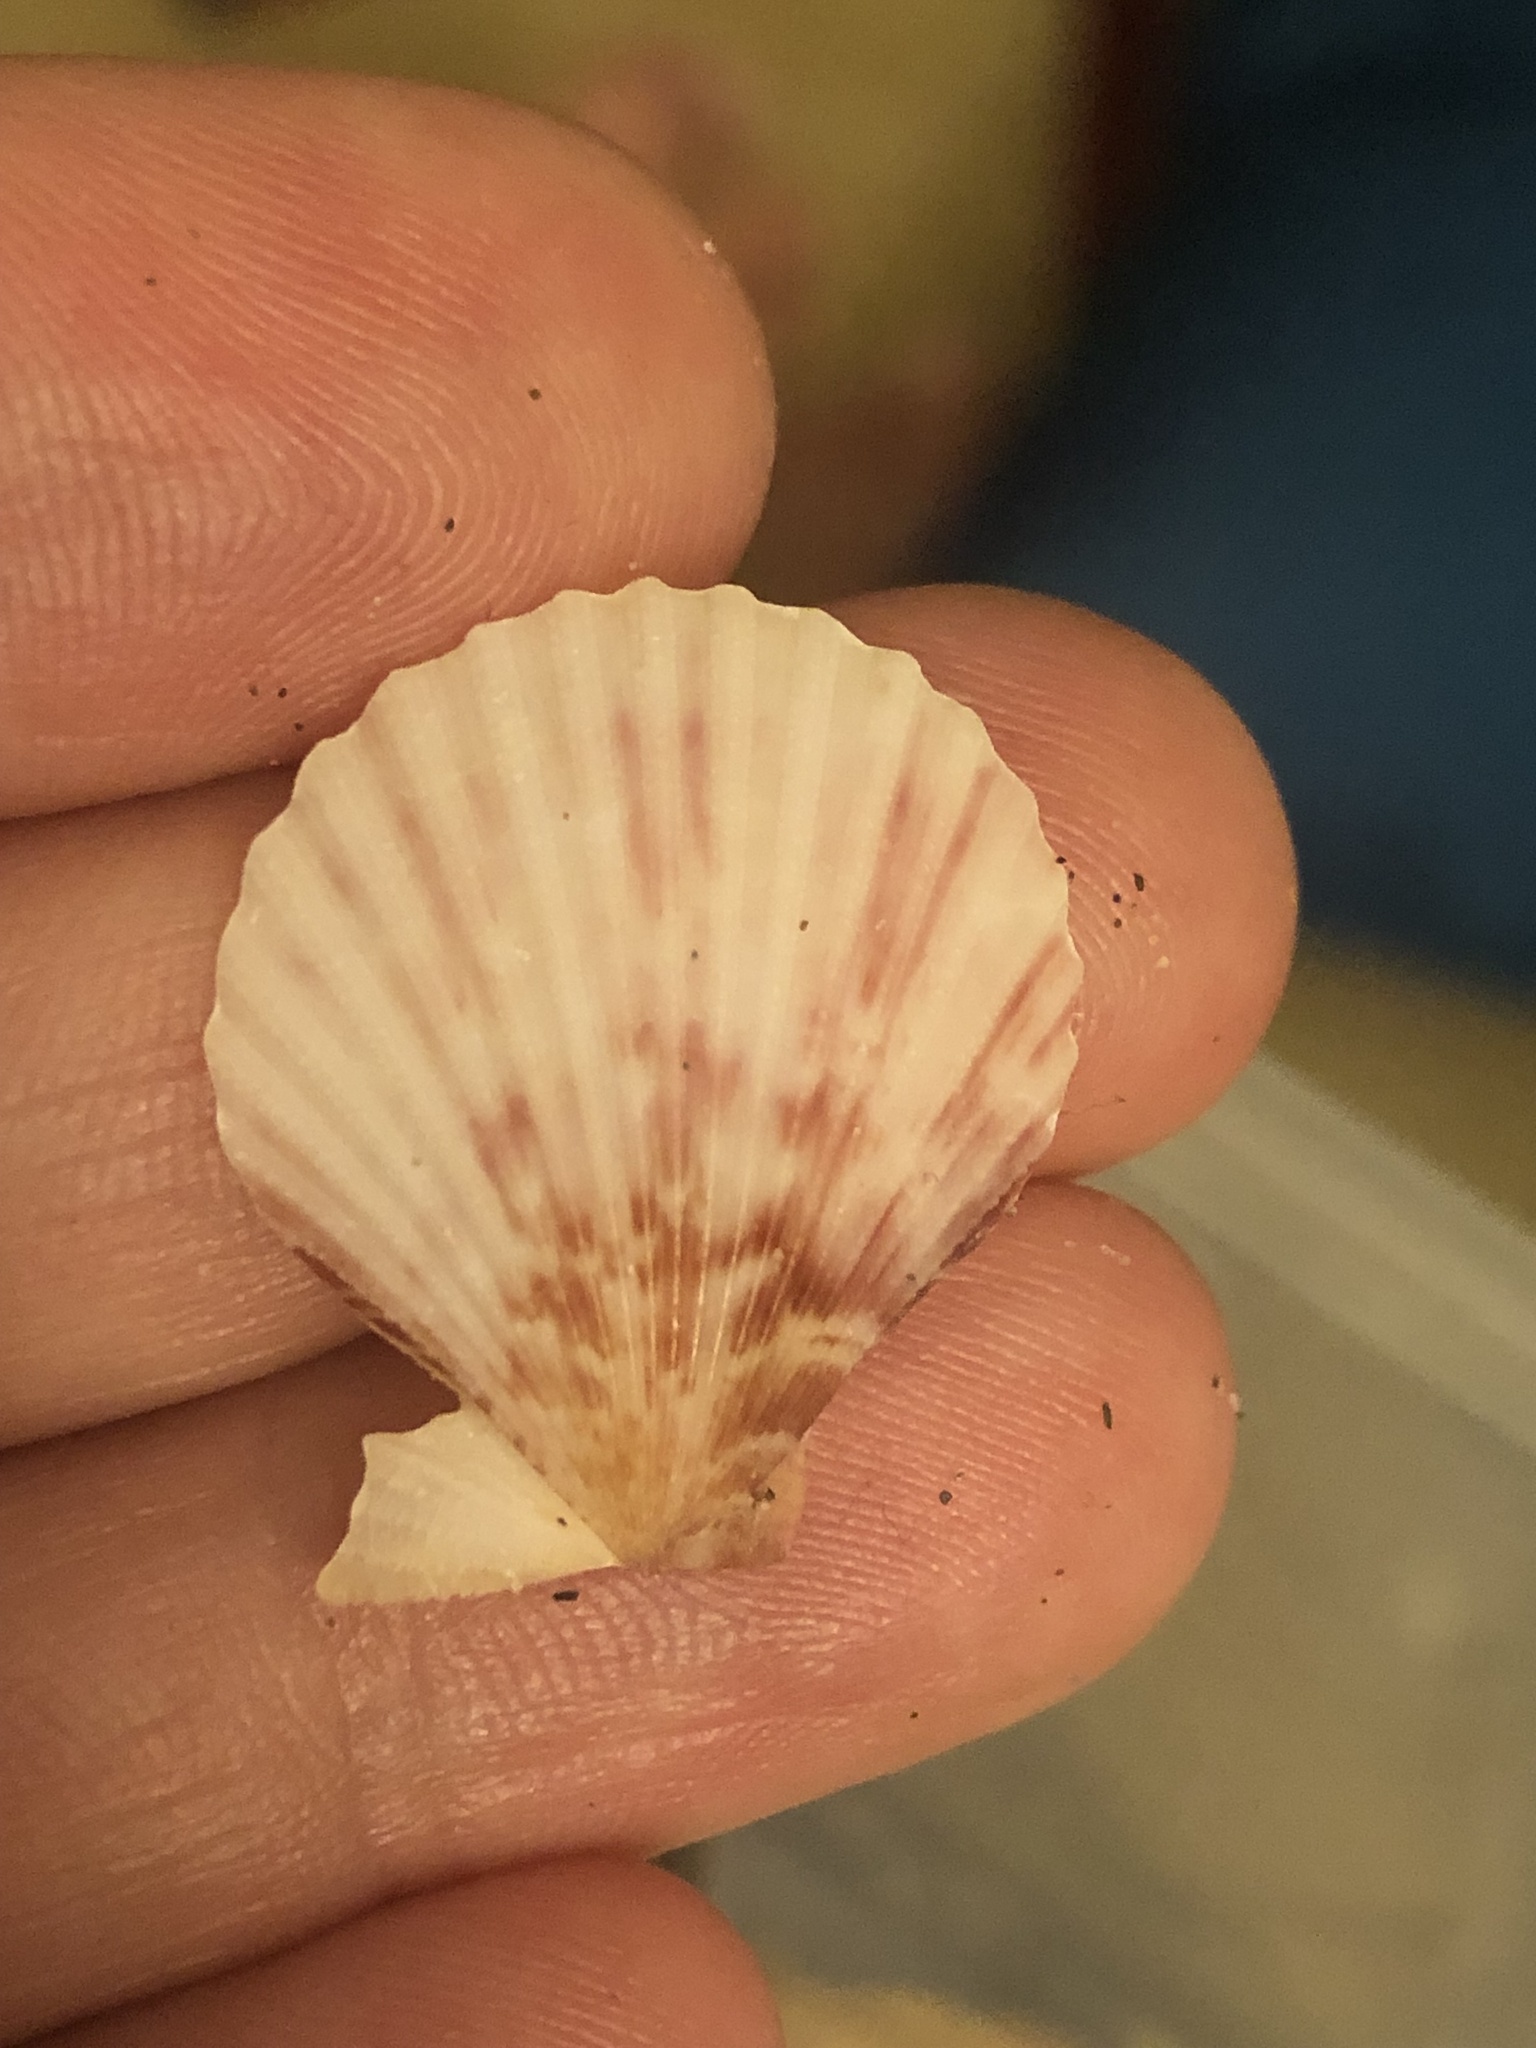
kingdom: Animalia
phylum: Mollusca
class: Bivalvia
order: Pectinida
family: Pectinidae
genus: Aequipecten
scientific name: Aequipecten opercularis
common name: Queen scallop
